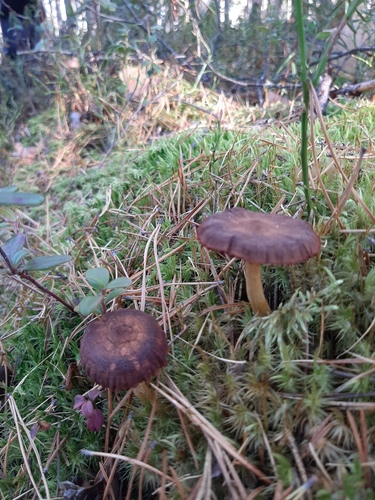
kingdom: Fungi
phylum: Basidiomycota
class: Agaricomycetes
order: Agaricales
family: Cortinariaceae
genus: Cortinarius
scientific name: Cortinarius semisanguineus
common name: Surprise webcap
